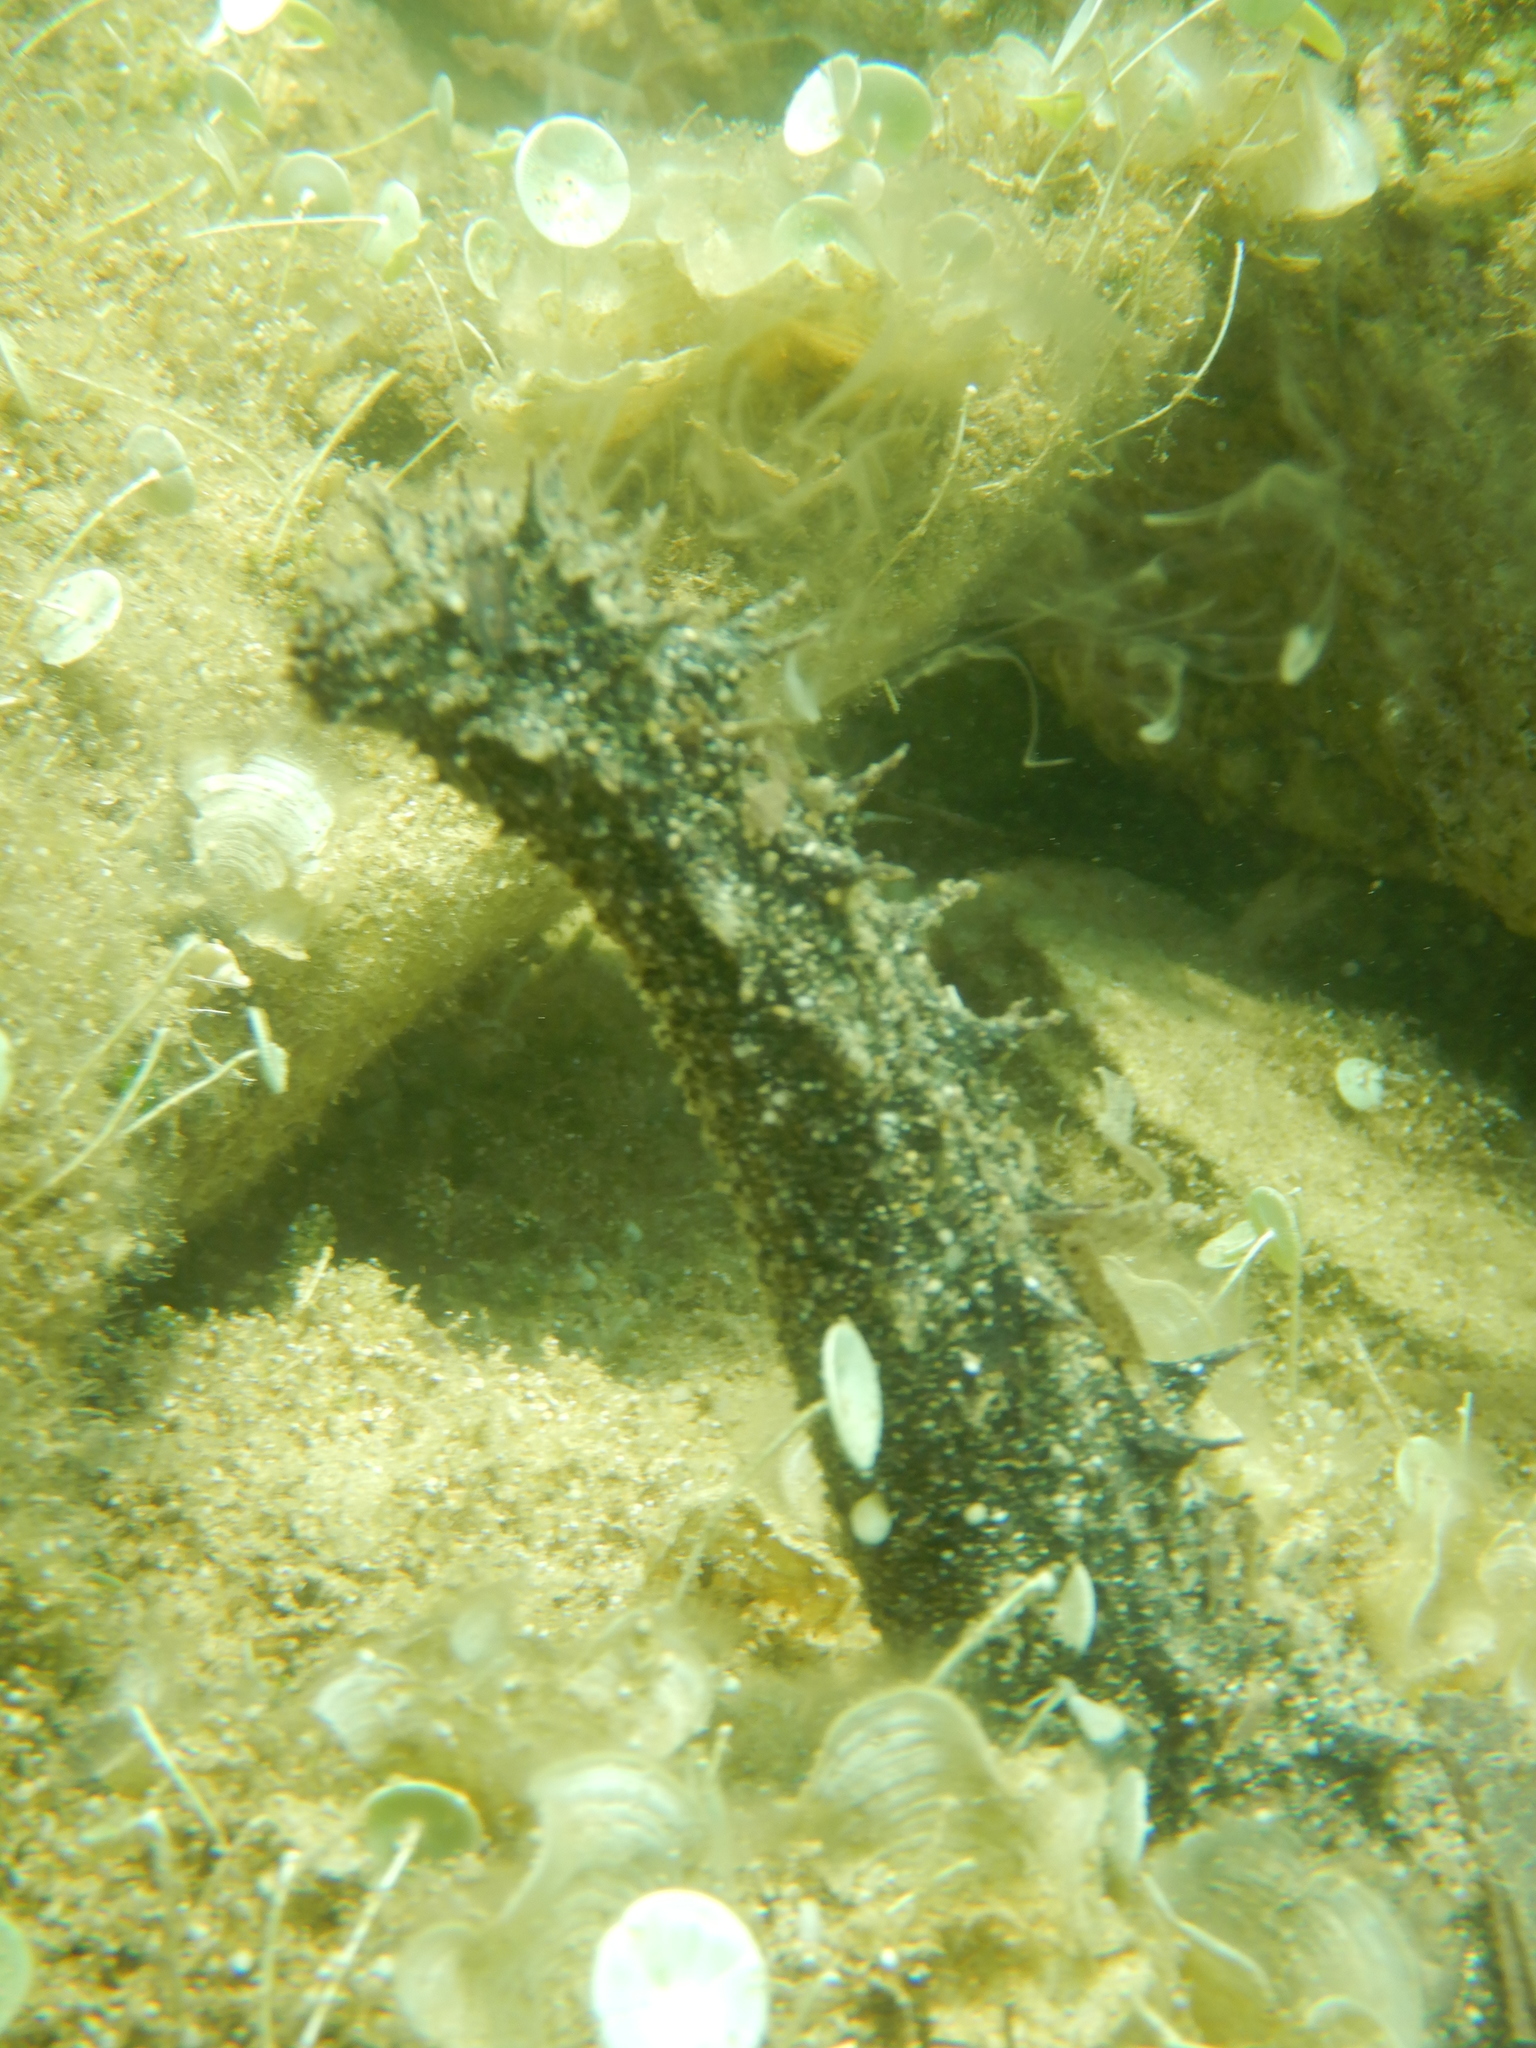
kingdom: Animalia
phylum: Echinodermata
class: Holothuroidea
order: Holothuriida
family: Holothuriidae
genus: Holothuria
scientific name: Holothuria tubulosa
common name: Cotton-spinner
